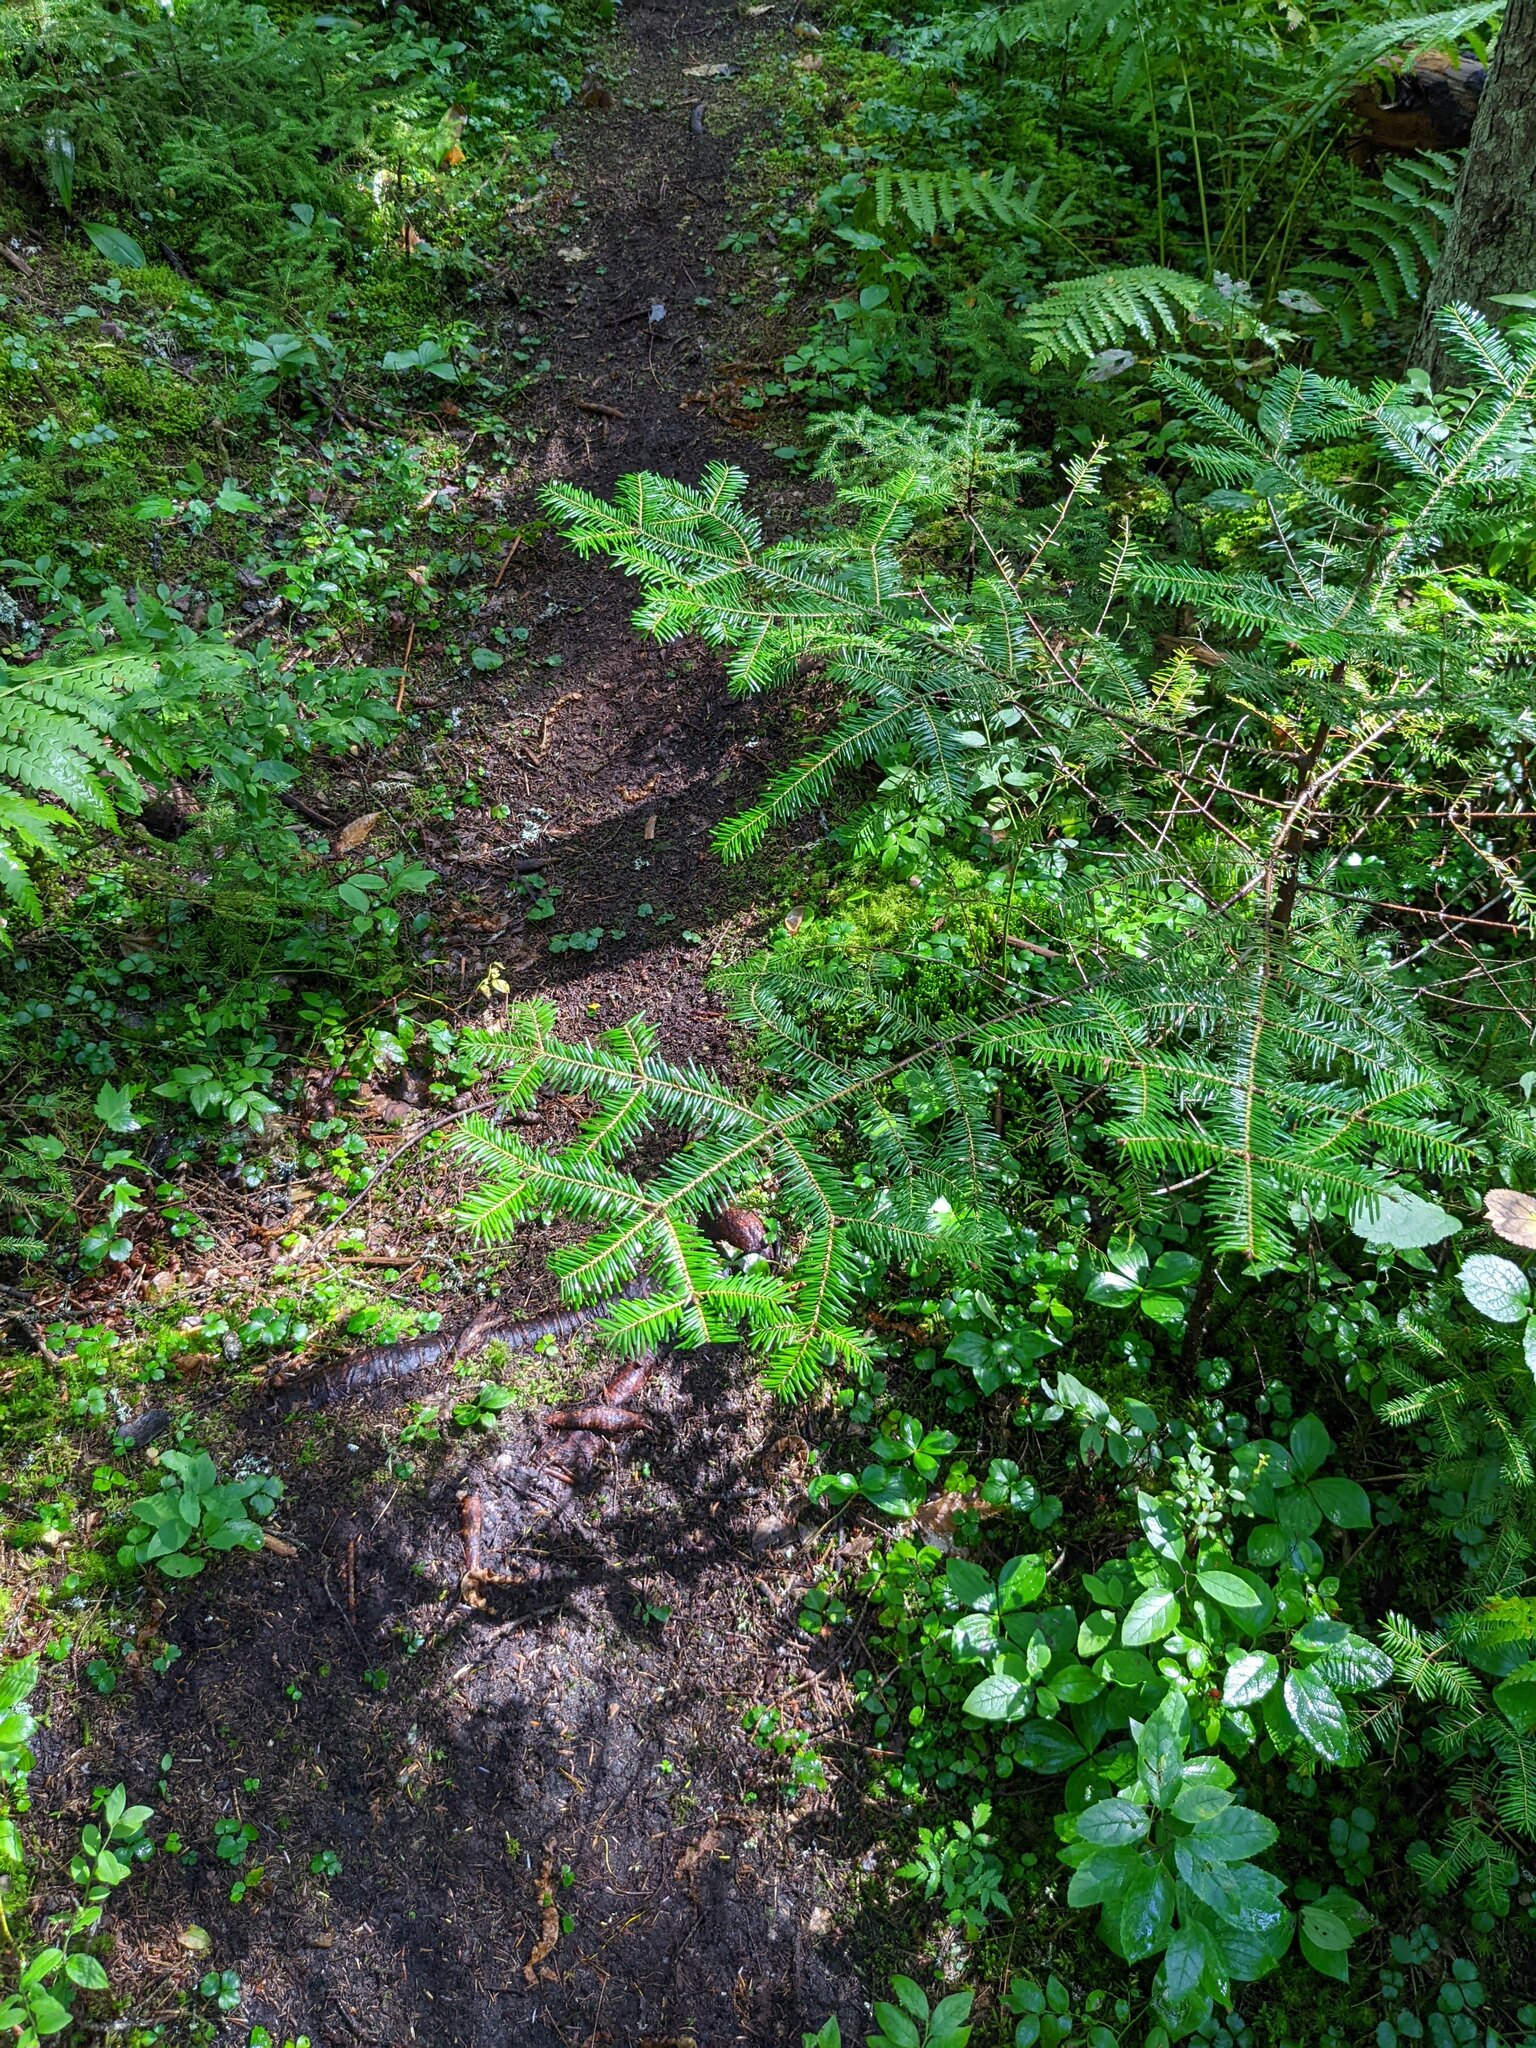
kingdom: Plantae
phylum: Tracheophyta
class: Pinopsida
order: Pinales
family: Pinaceae
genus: Abies
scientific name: Abies balsamea
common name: Balsam fir
